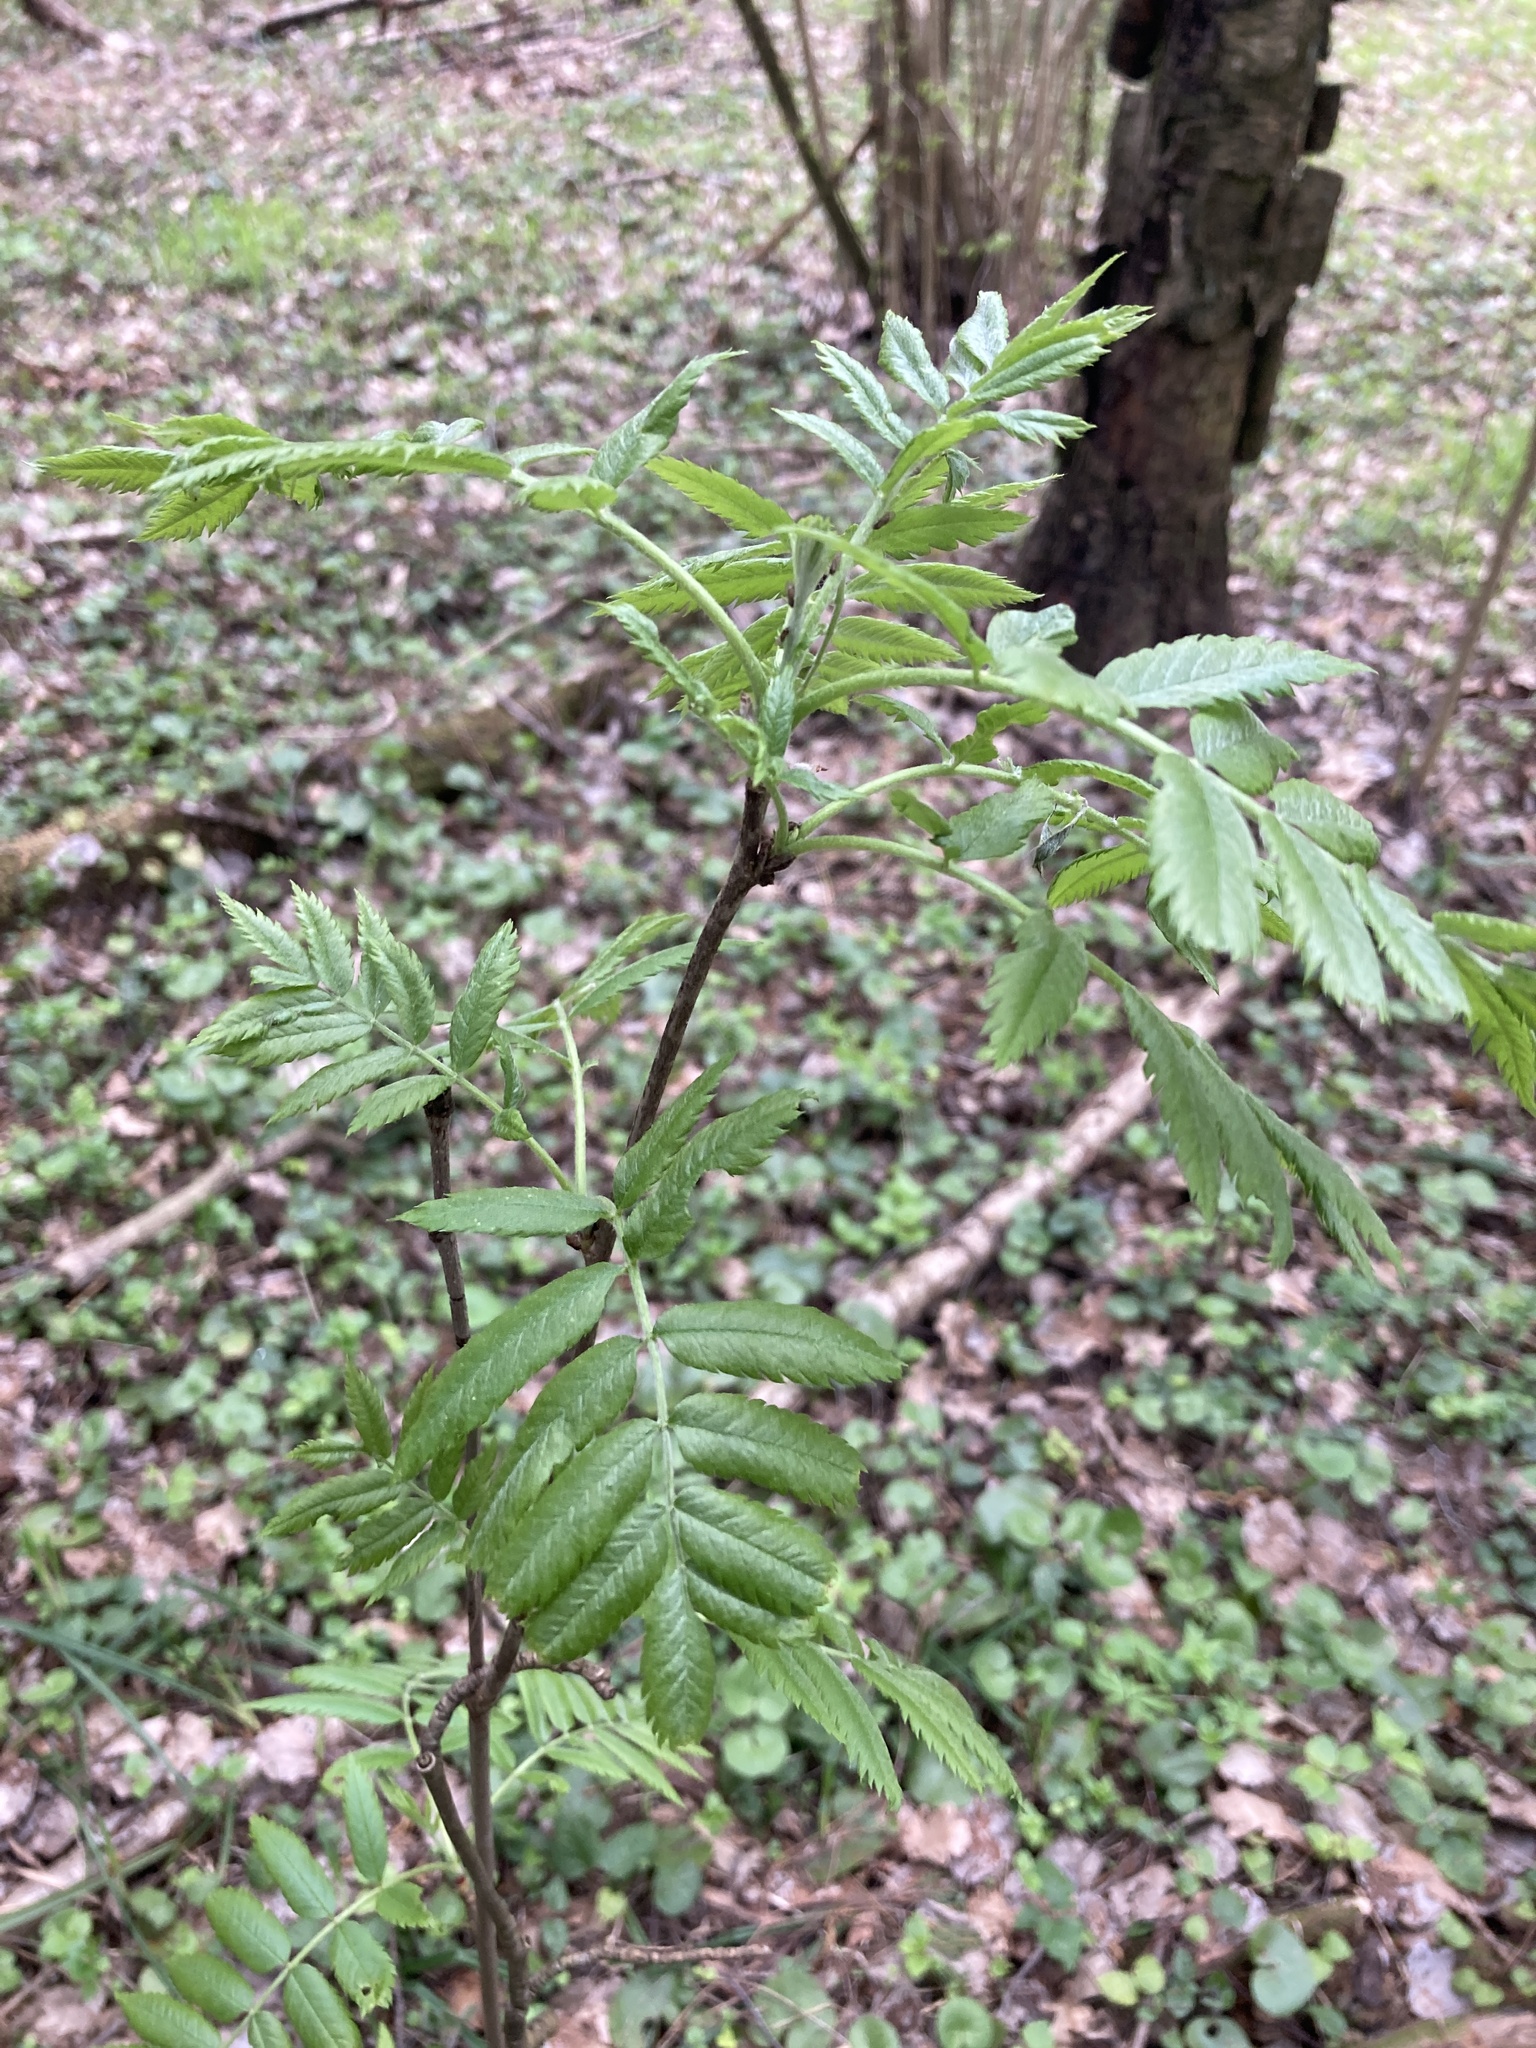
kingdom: Plantae
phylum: Tracheophyta
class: Magnoliopsida
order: Rosales
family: Rosaceae
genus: Sorbus
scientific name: Sorbus aucuparia
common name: Rowan
